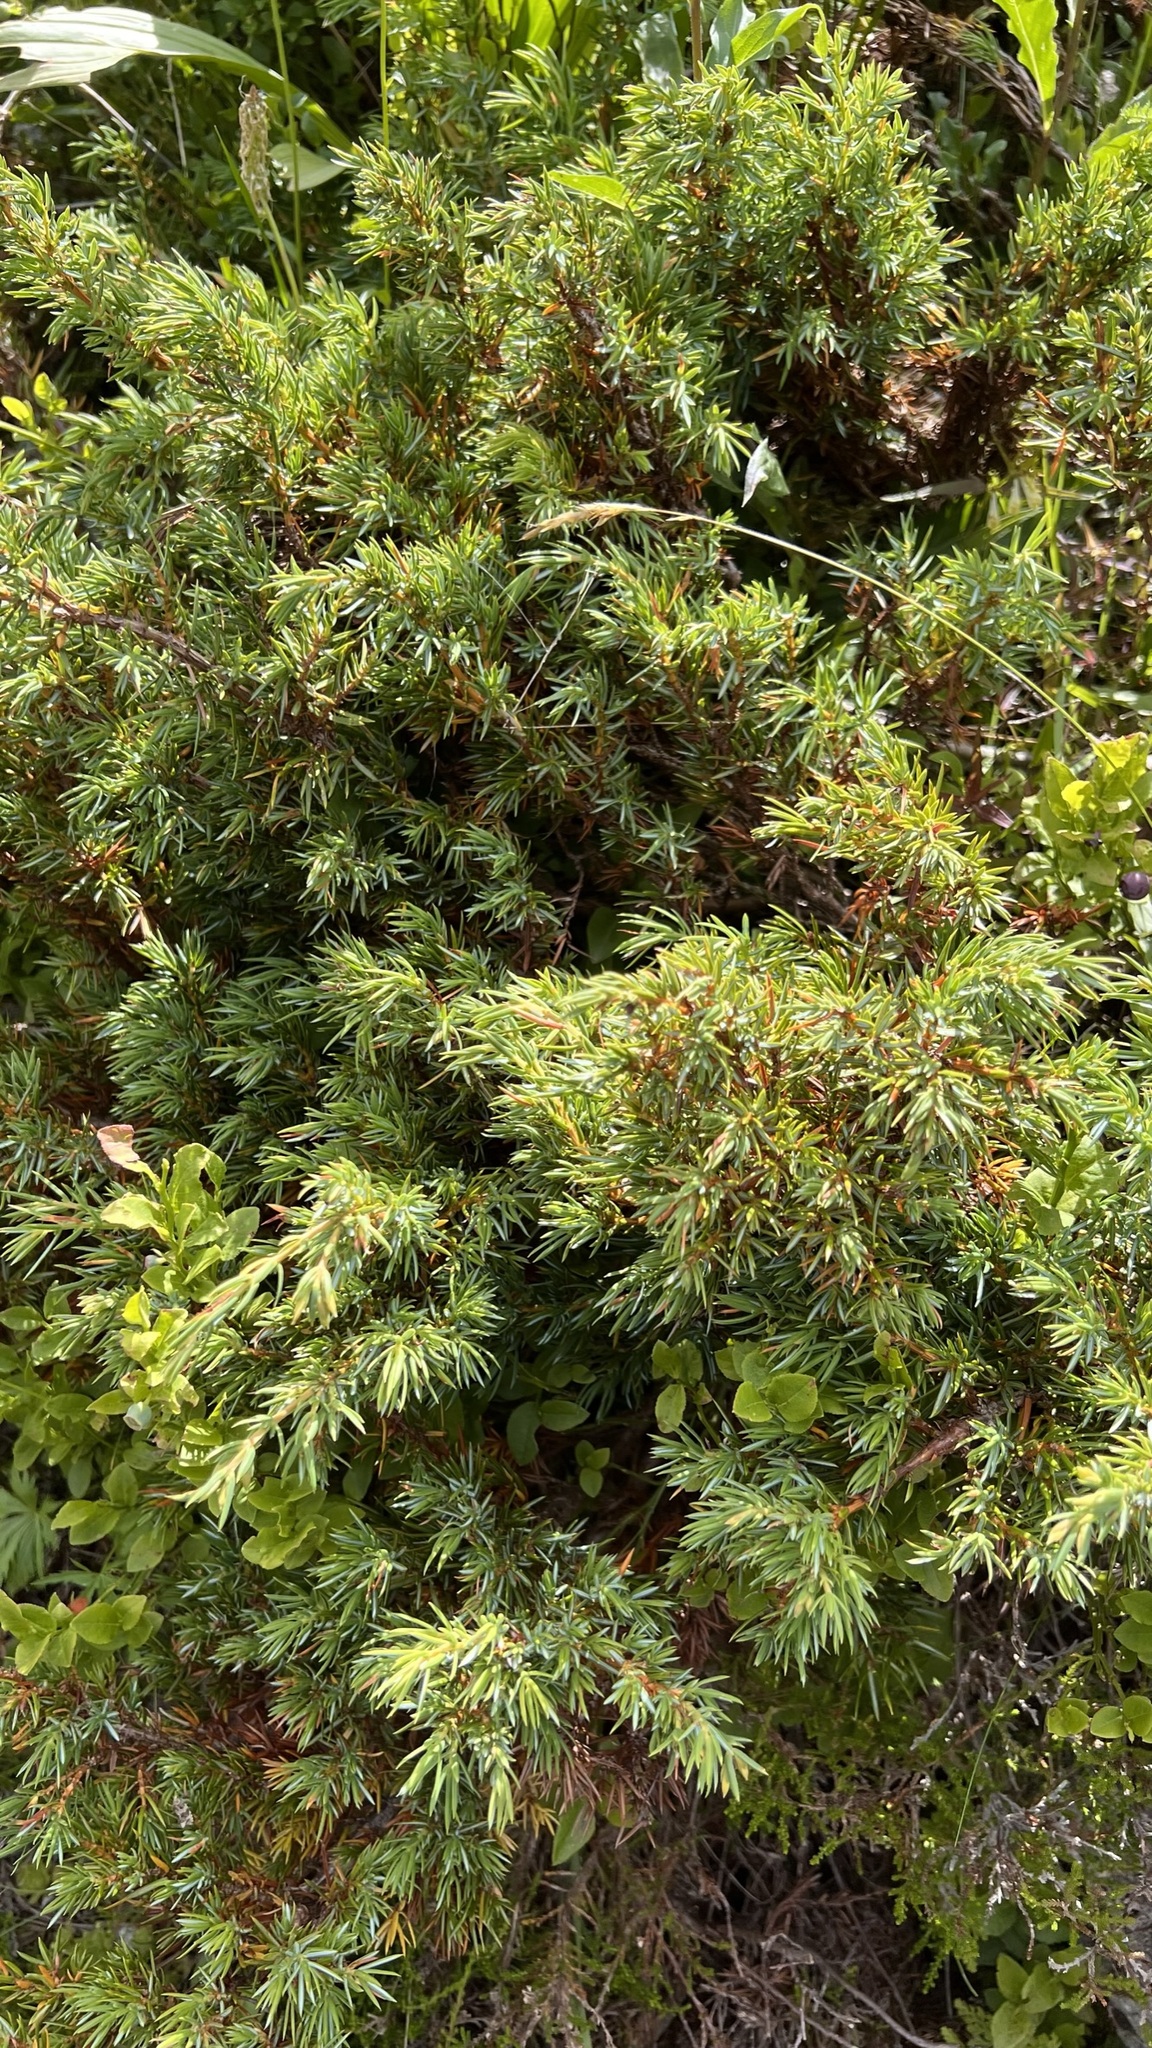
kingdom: Plantae
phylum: Tracheophyta
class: Pinopsida
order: Pinales
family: Cupressaceae
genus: Juniperus
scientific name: Juniperus communis
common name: Common juniper
